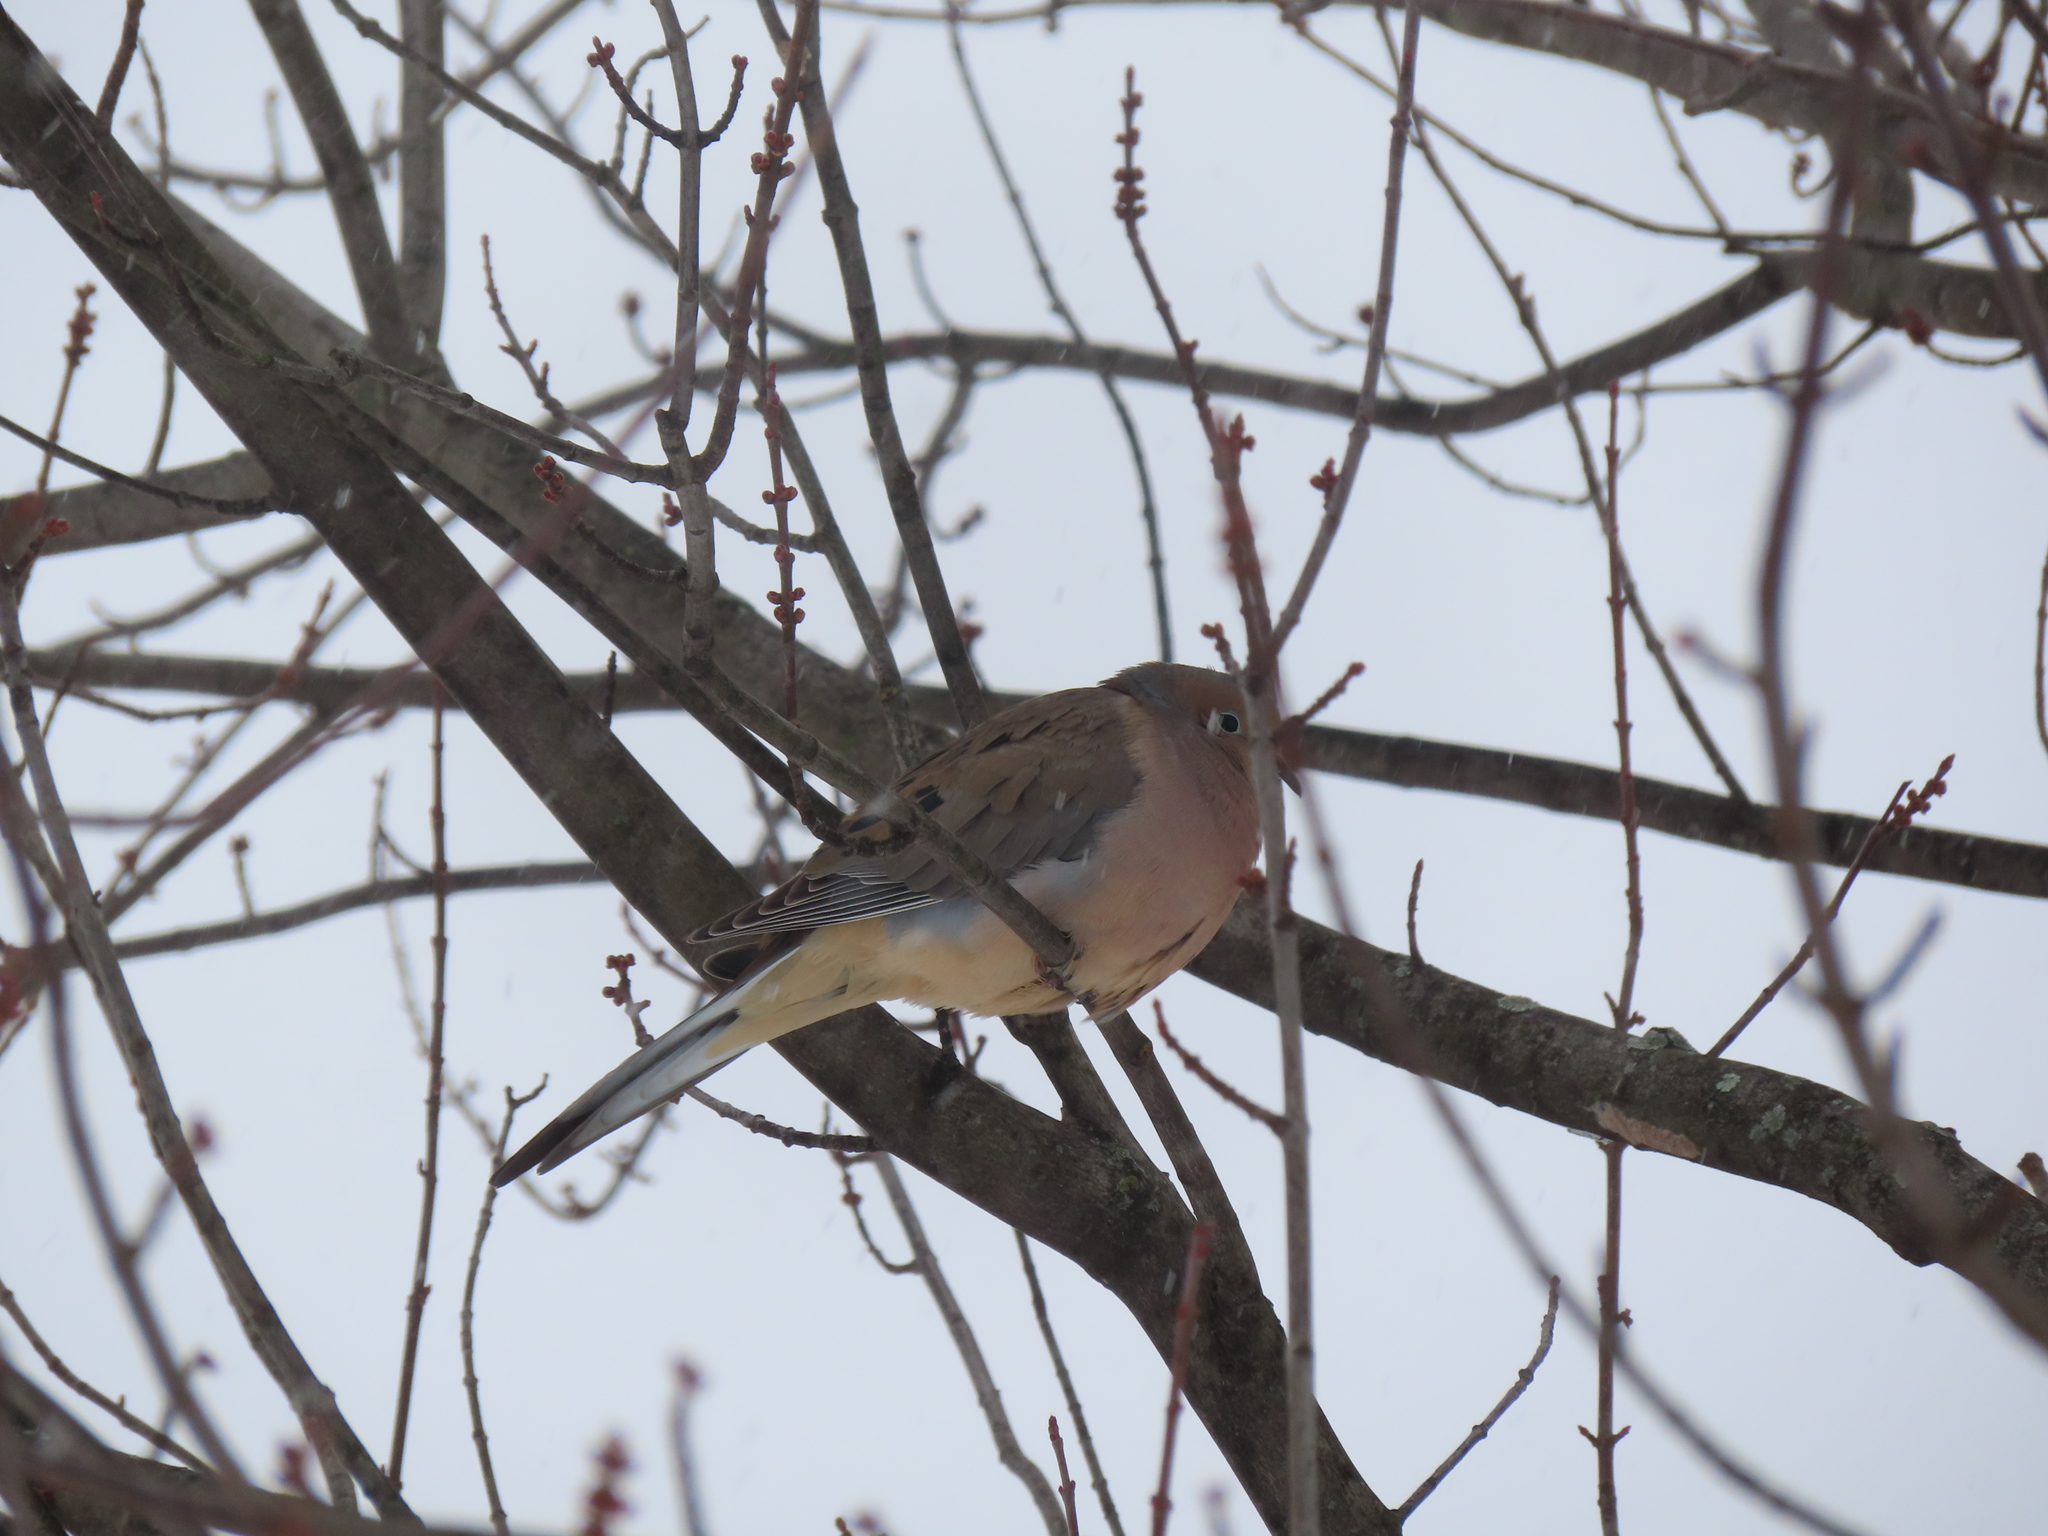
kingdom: Animalia
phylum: Chordata
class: Aves
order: Columbiformes
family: Columbidae
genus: Zenaida
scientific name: Zenaida macroura
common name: Mourning dove
